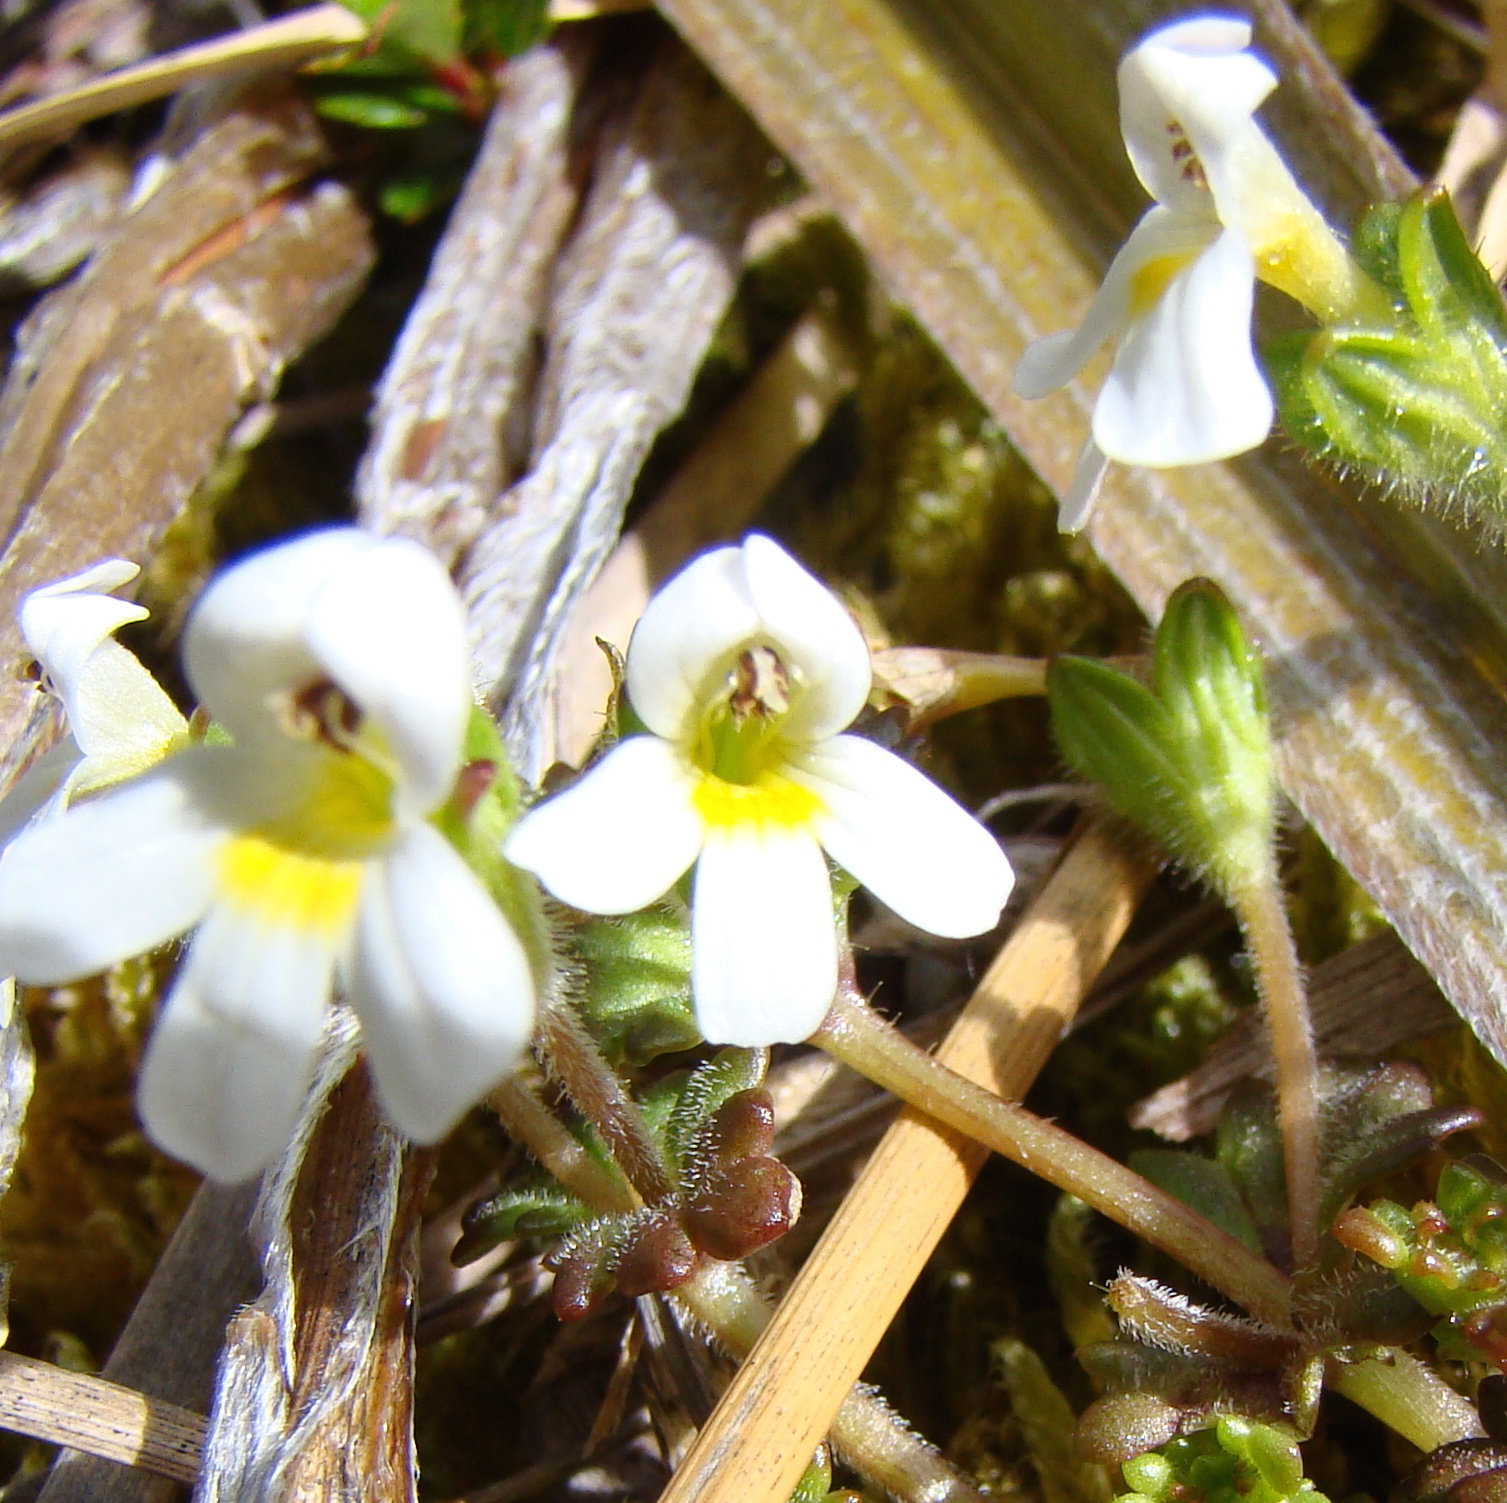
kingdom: Plantae
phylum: Tracheophyta
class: Magnoliopsida
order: Lamiales
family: Orobanchaceae
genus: Euphrasia
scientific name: Euphrasia australis
